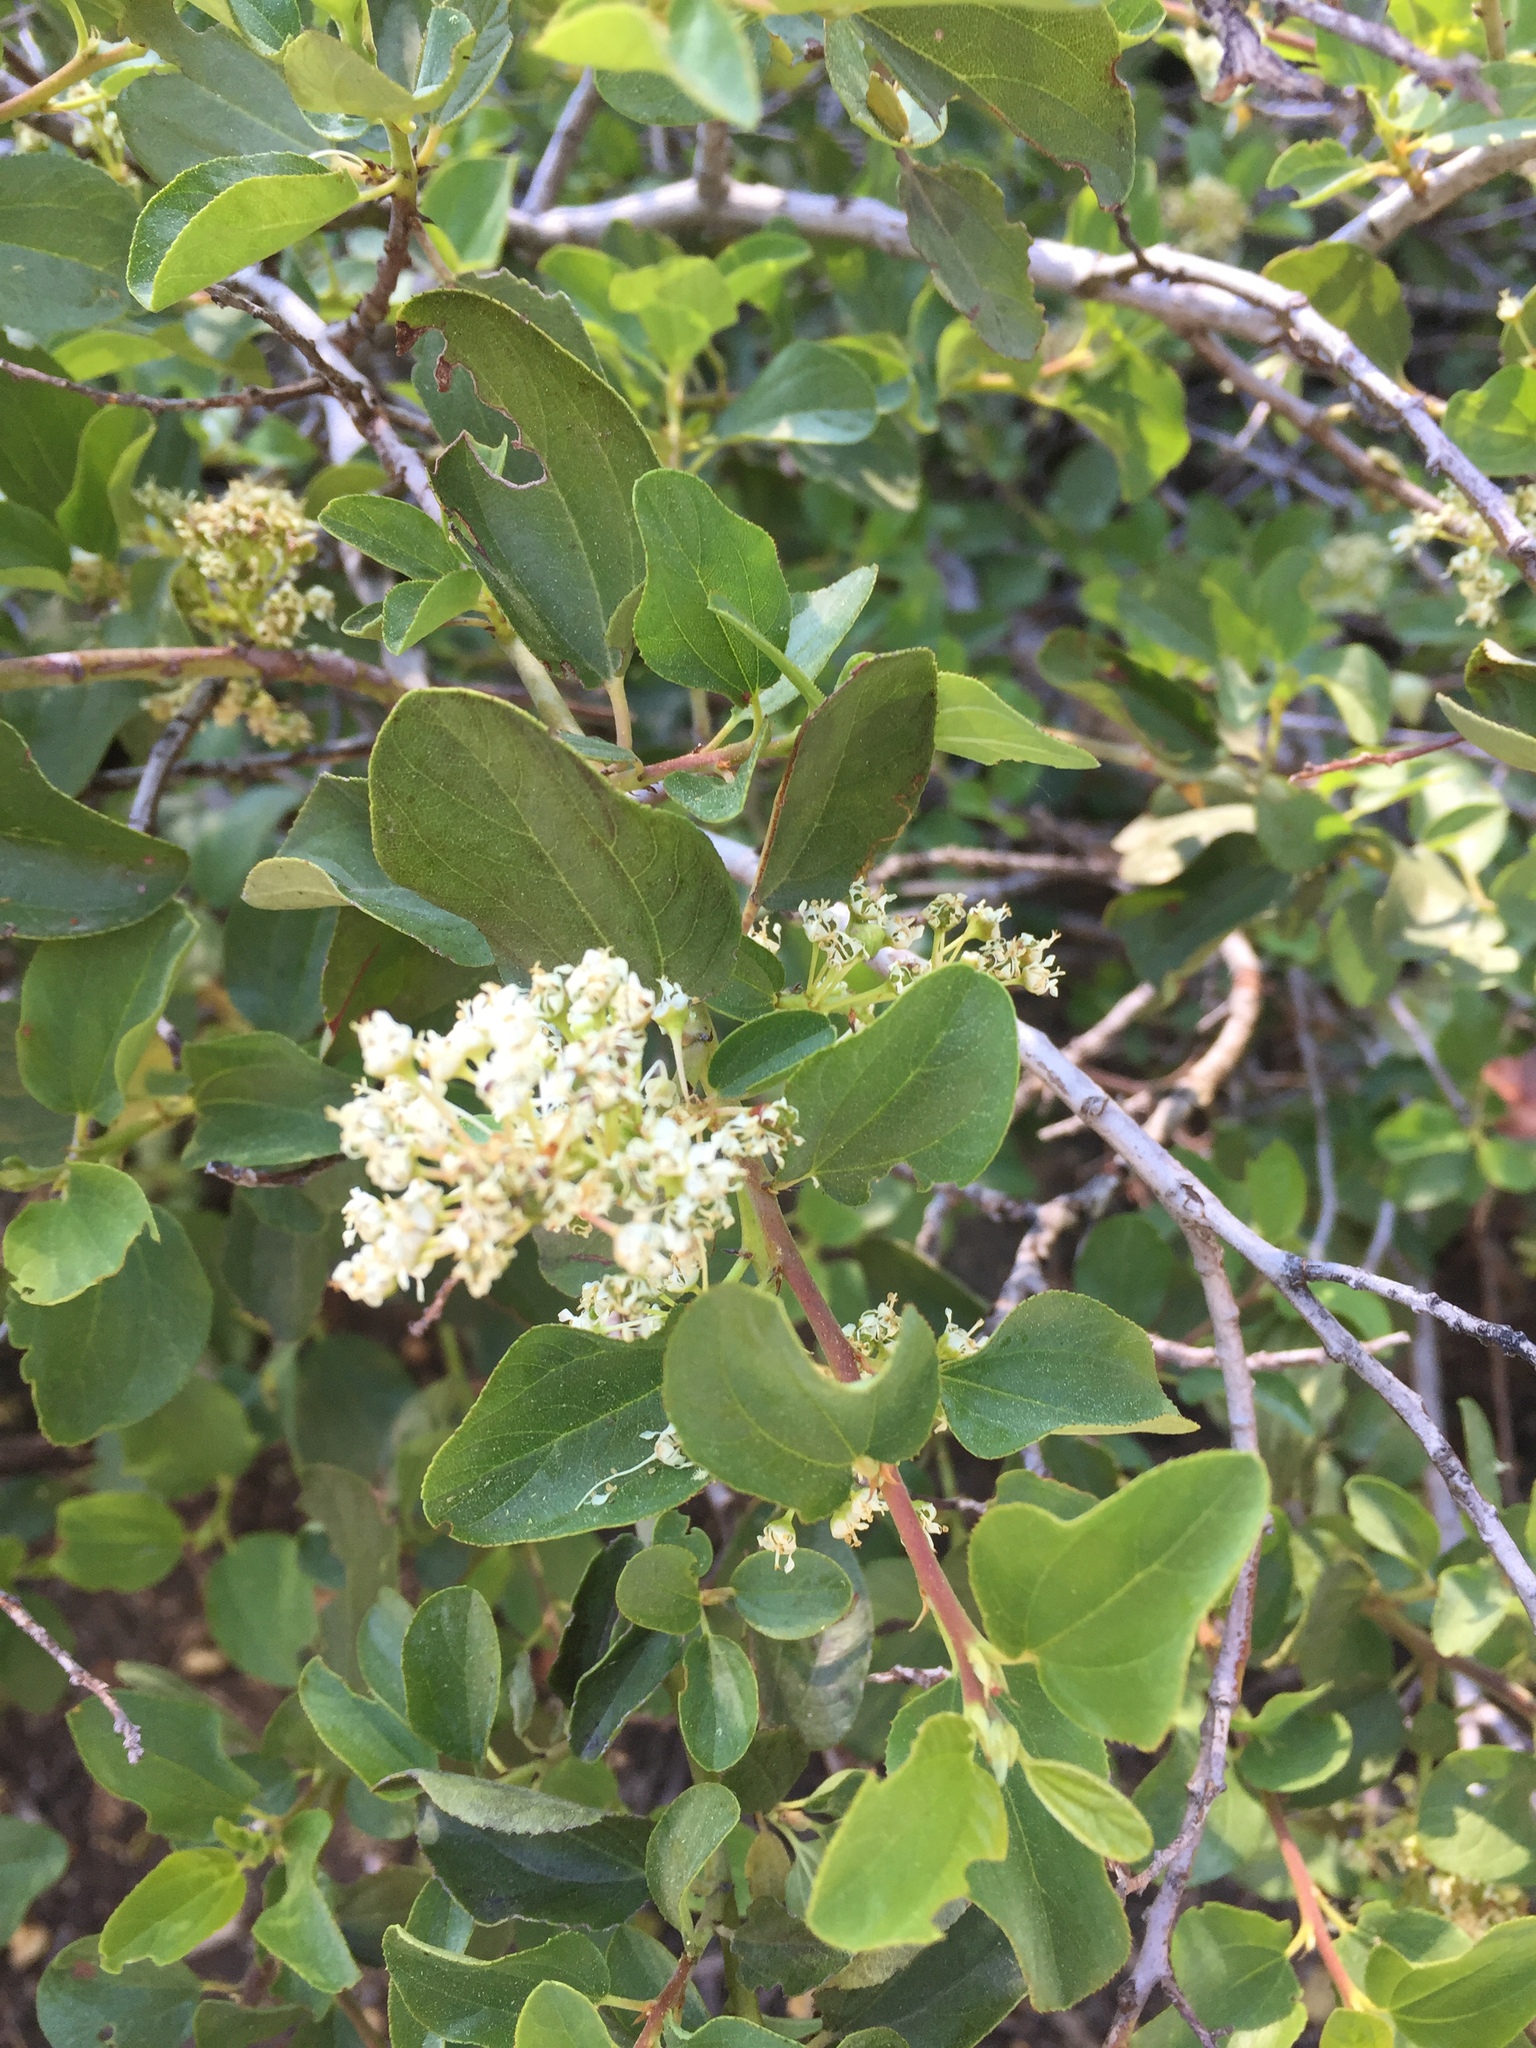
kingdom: Plantae
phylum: Tracheophyta
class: Magnoliopsida
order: Rosales
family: Rhamnaceae
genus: Ceanothus
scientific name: Ceanothus velutinus
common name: Snowbrush
